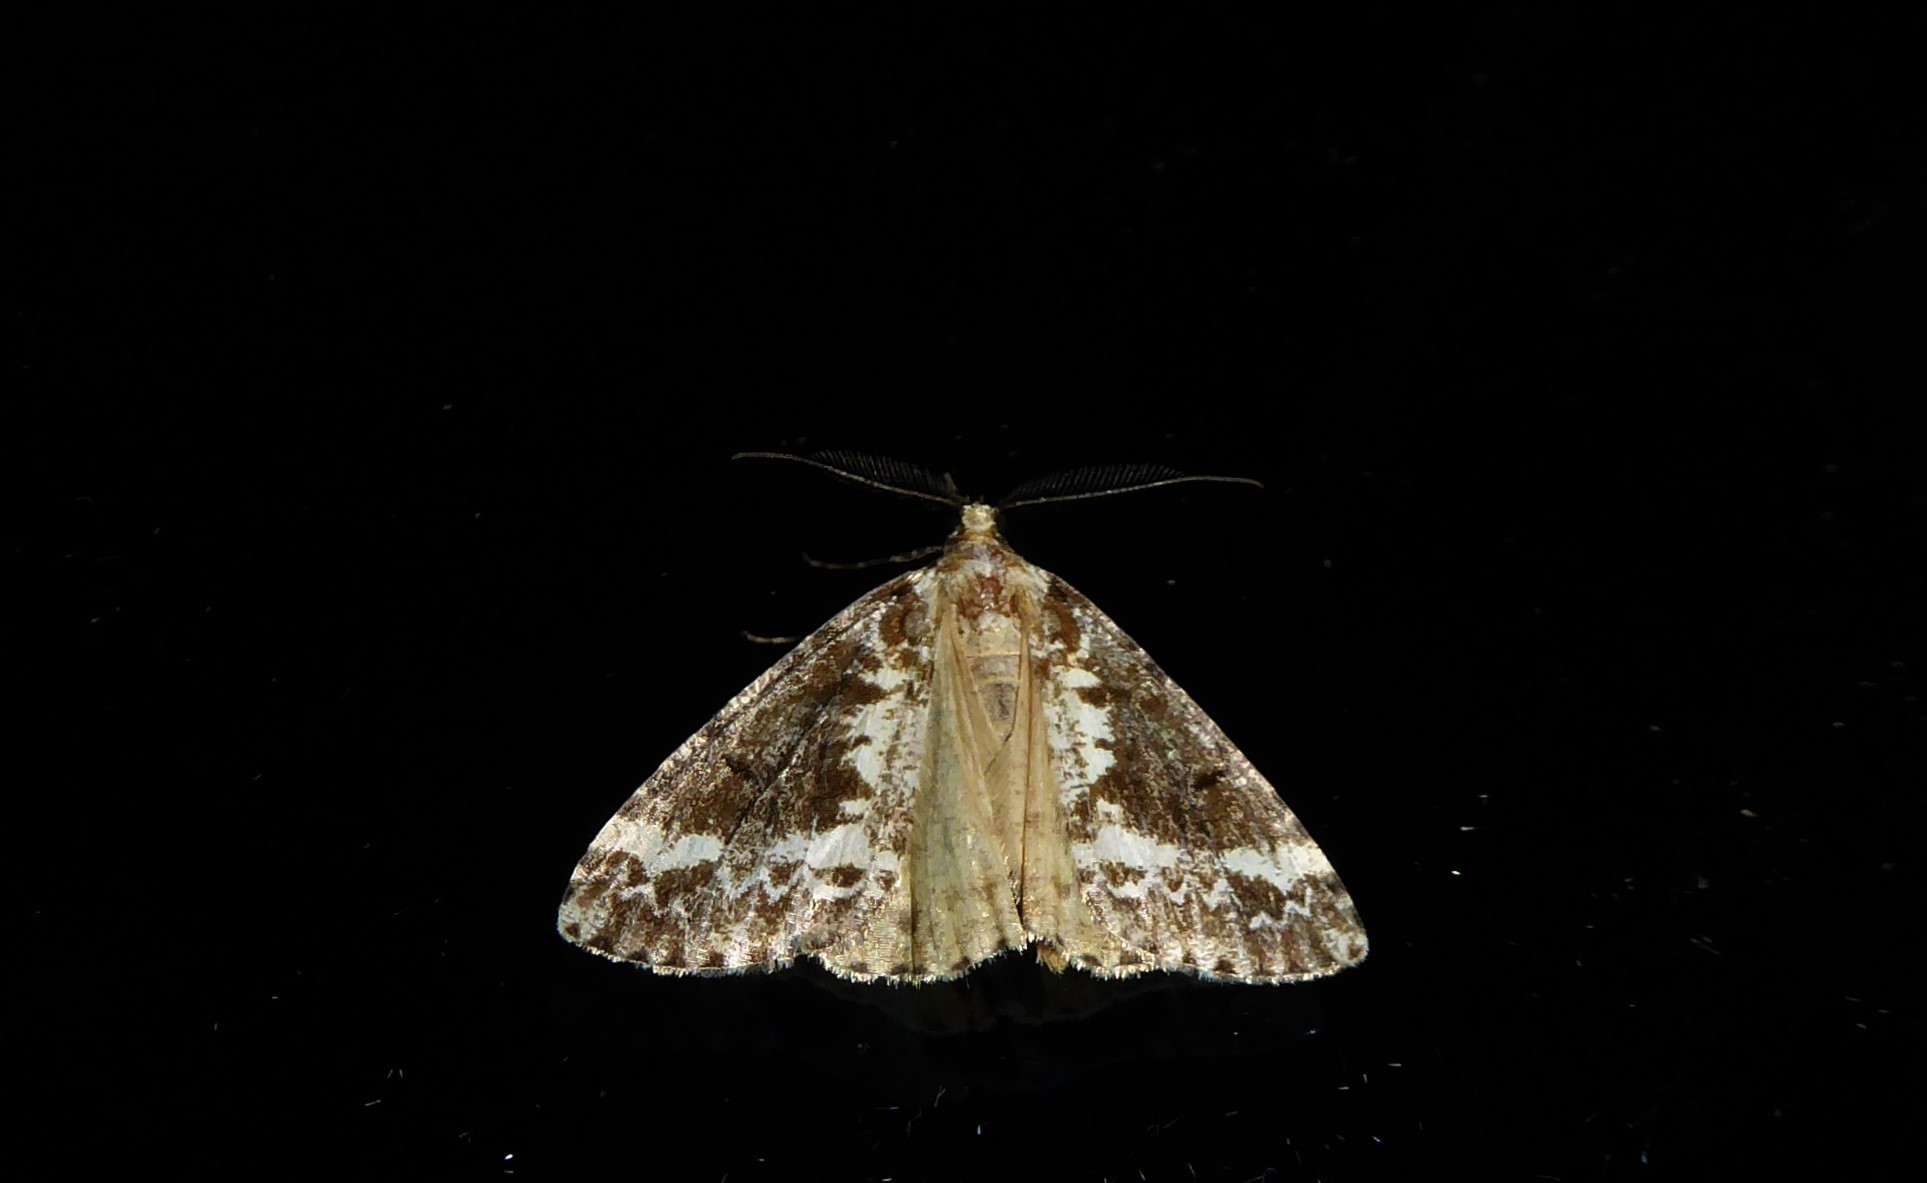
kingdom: Animalia
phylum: Arthropoda
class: Insecta
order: Lepidoptera
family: Geometridae
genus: Pseudocoremia
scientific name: Pseudocoremia leucelaea
